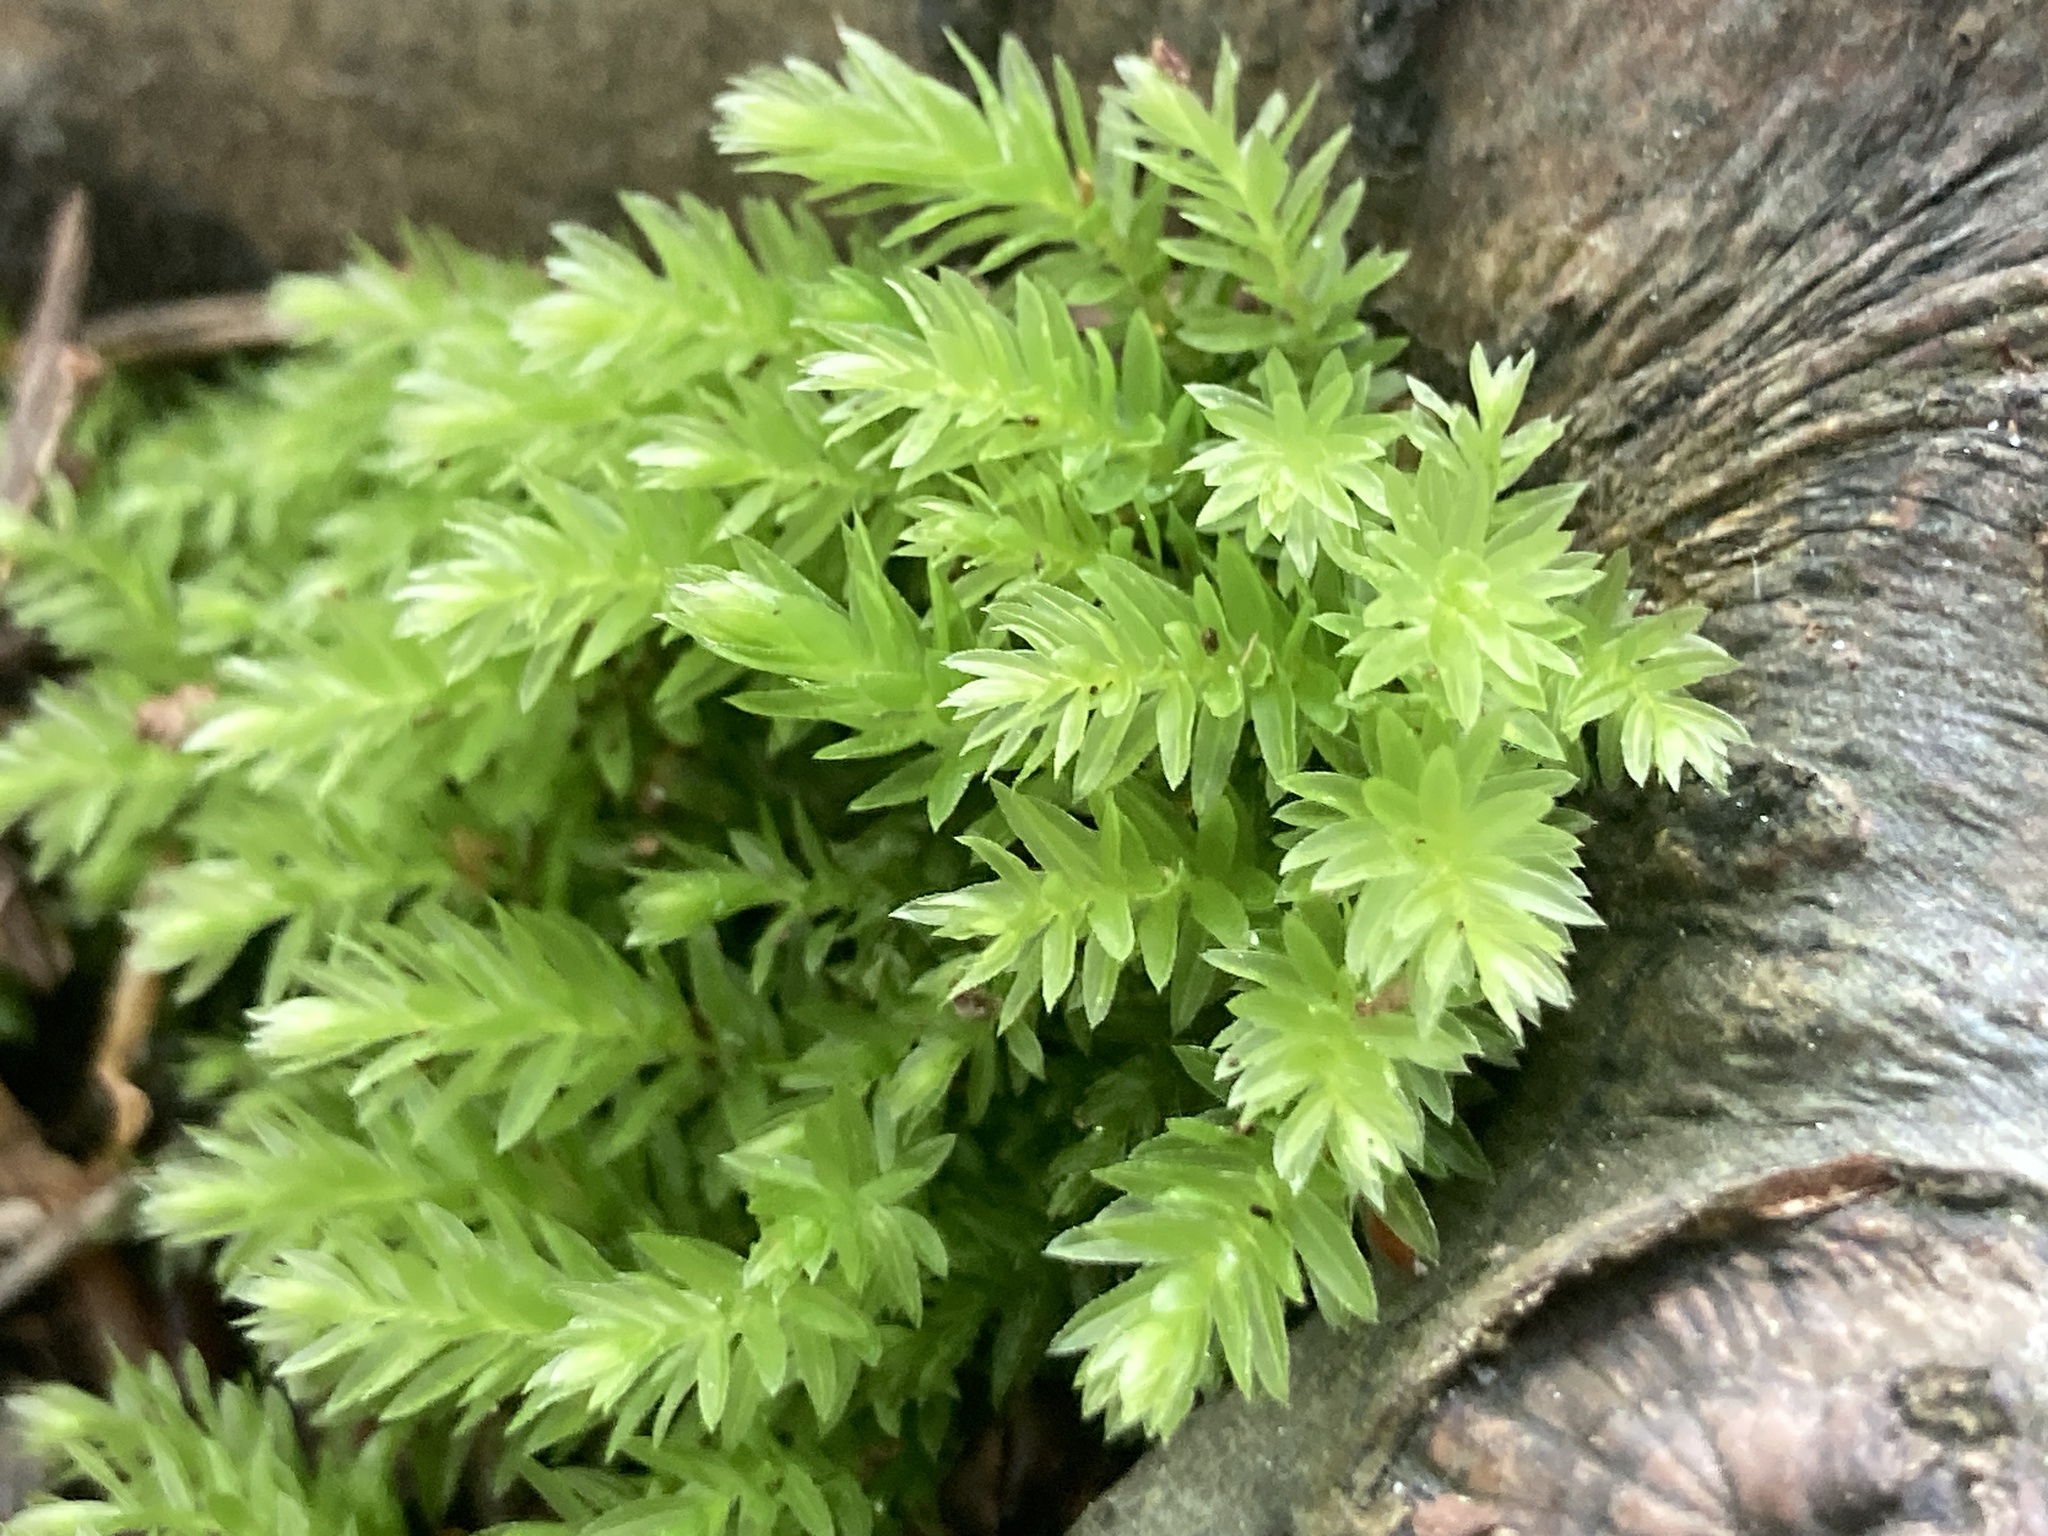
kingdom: Plantae
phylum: Bryophyta
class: Bryopsida
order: Bryales
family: Mniaceae
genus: Mnium
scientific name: Mnium hornum
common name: Swan's-neck leafy moss
